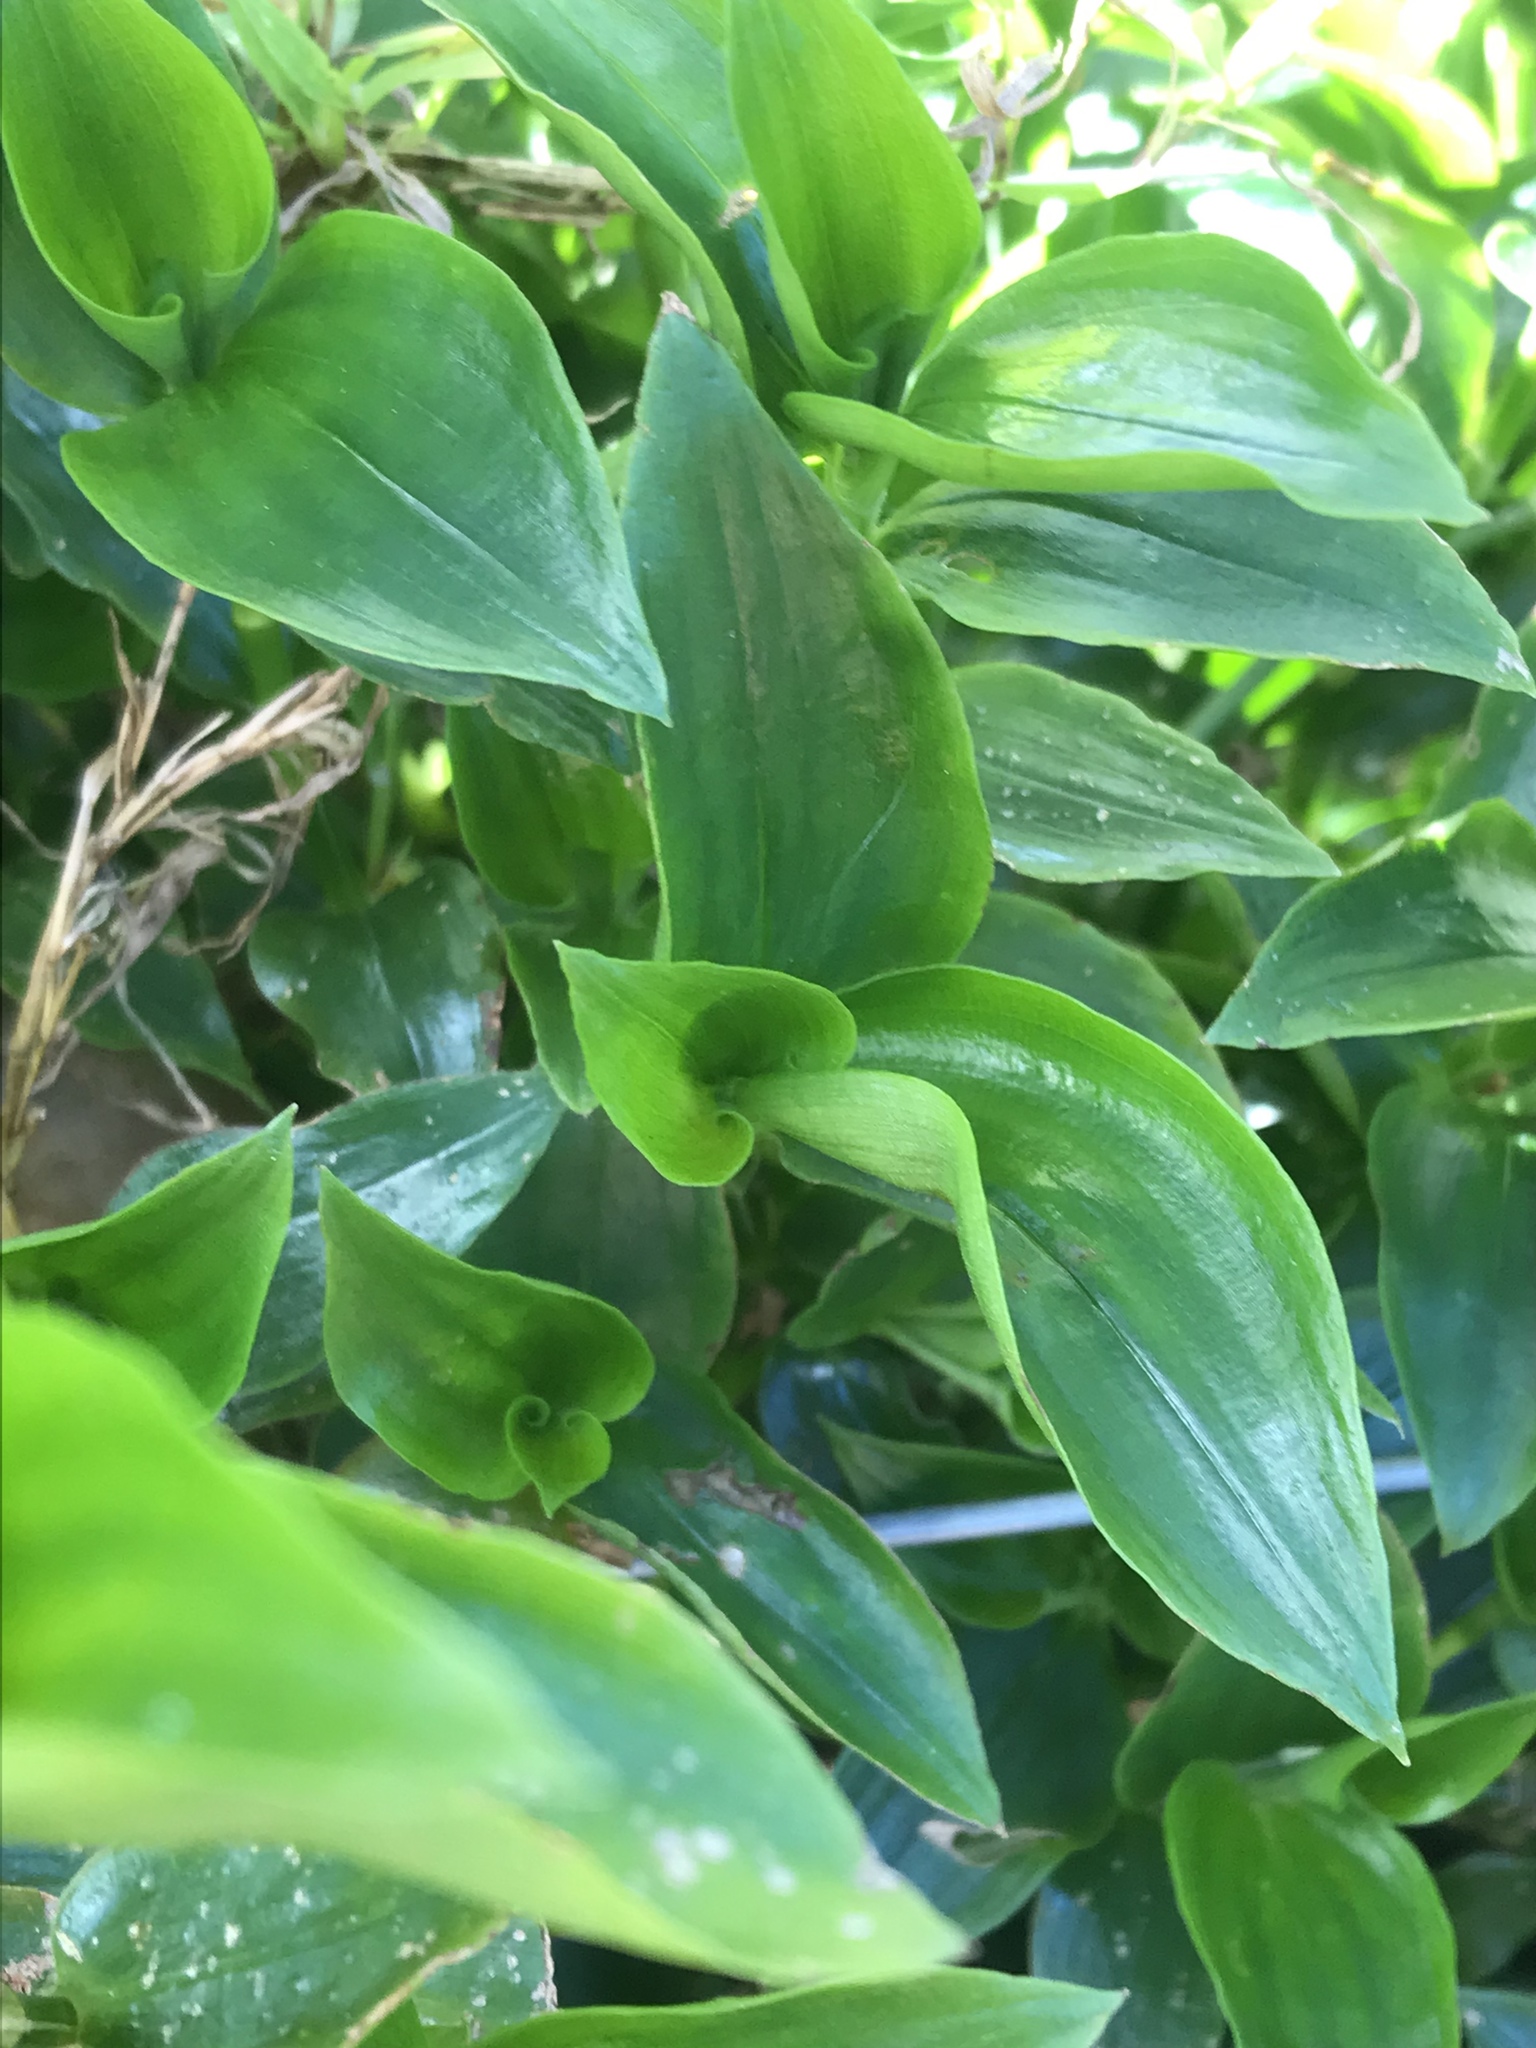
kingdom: Plantae
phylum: Tracheophyta
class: Liliopsida
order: Commelinales
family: Commelinaceae
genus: Tradescantia
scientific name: Tradescantia fluminensis
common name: Wandering-jew
